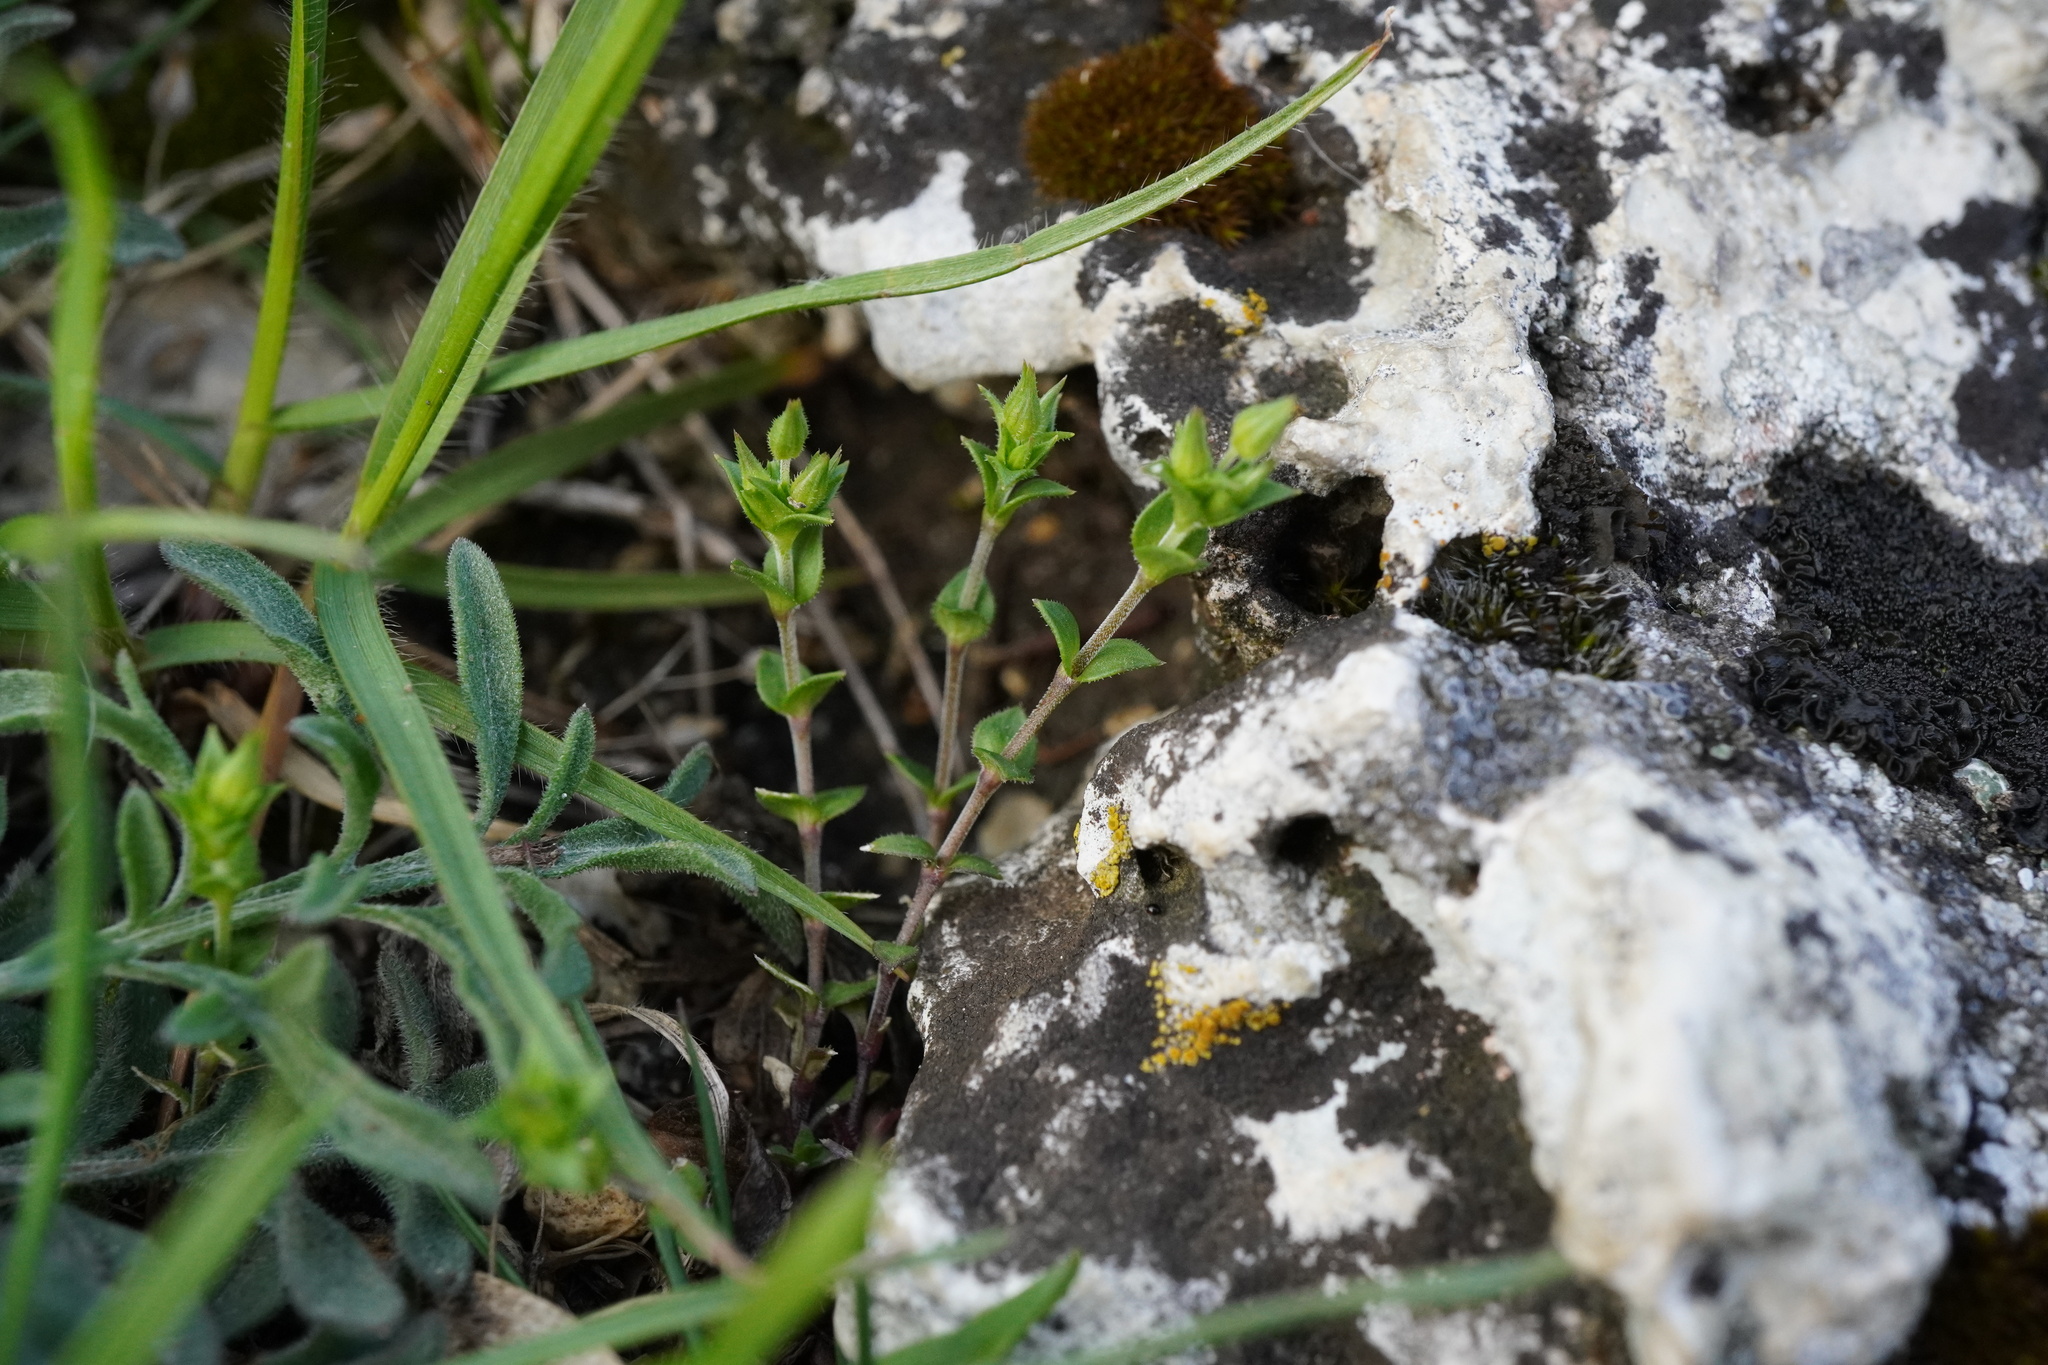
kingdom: Plantae
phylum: Tracheophyta
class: Magnoliopsida
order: Caryophyllales
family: Caryophyllaceae
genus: Arenaria
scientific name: Arenaria serpyllifolia
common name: Thyme-leaved sandwort
